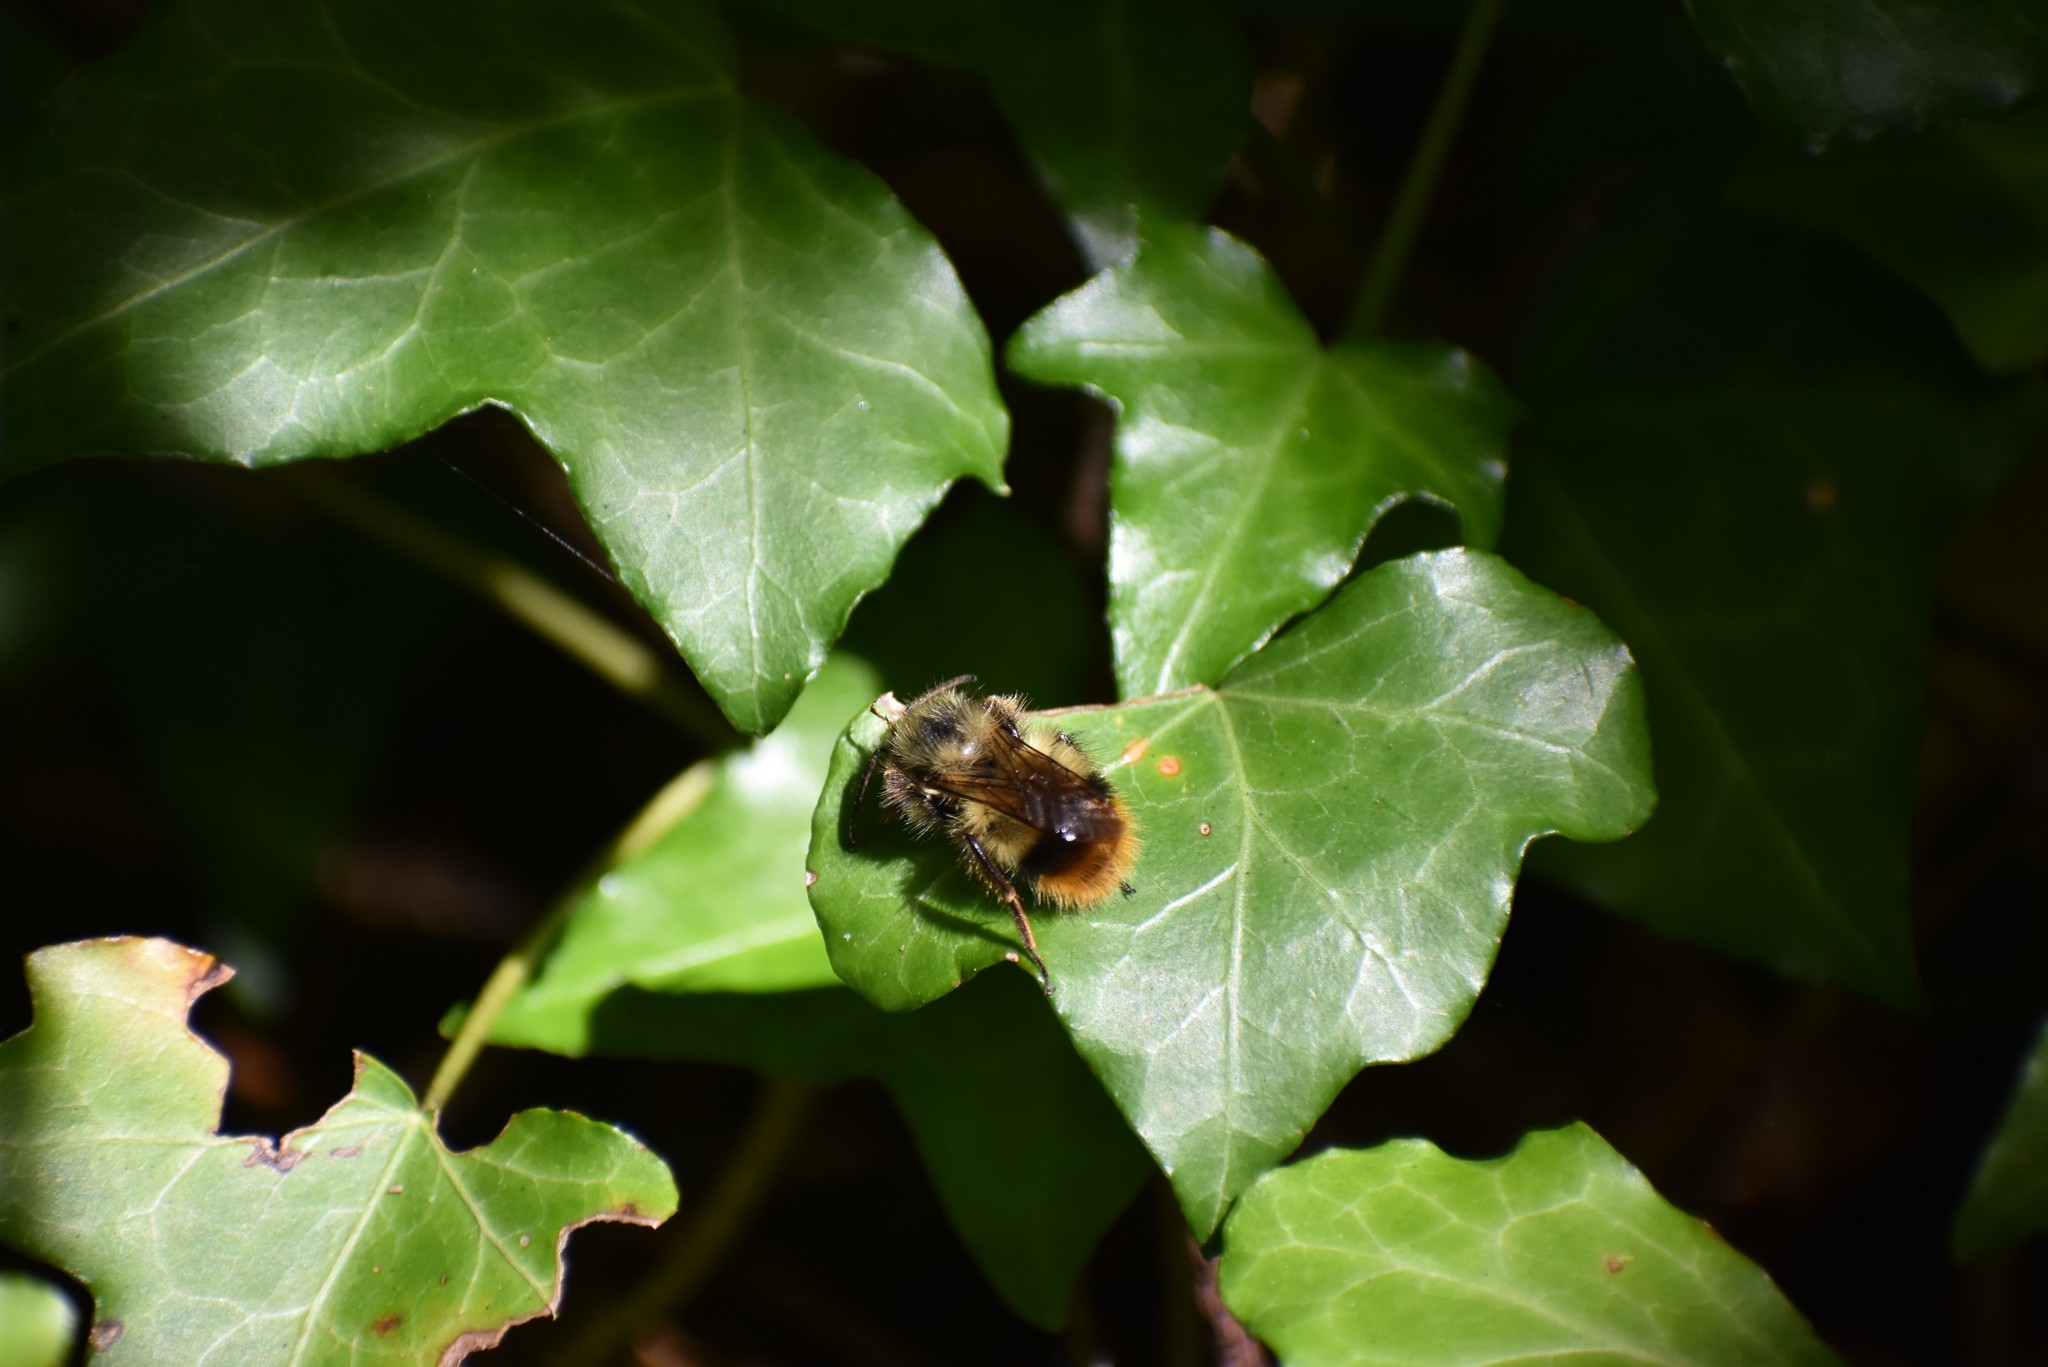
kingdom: Animalia
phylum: Arthropoda
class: Insecta
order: Hymenoptera
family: Apidae
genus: Bombus
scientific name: Bombus mixtus
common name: Fuzzy-horned bumble bee
